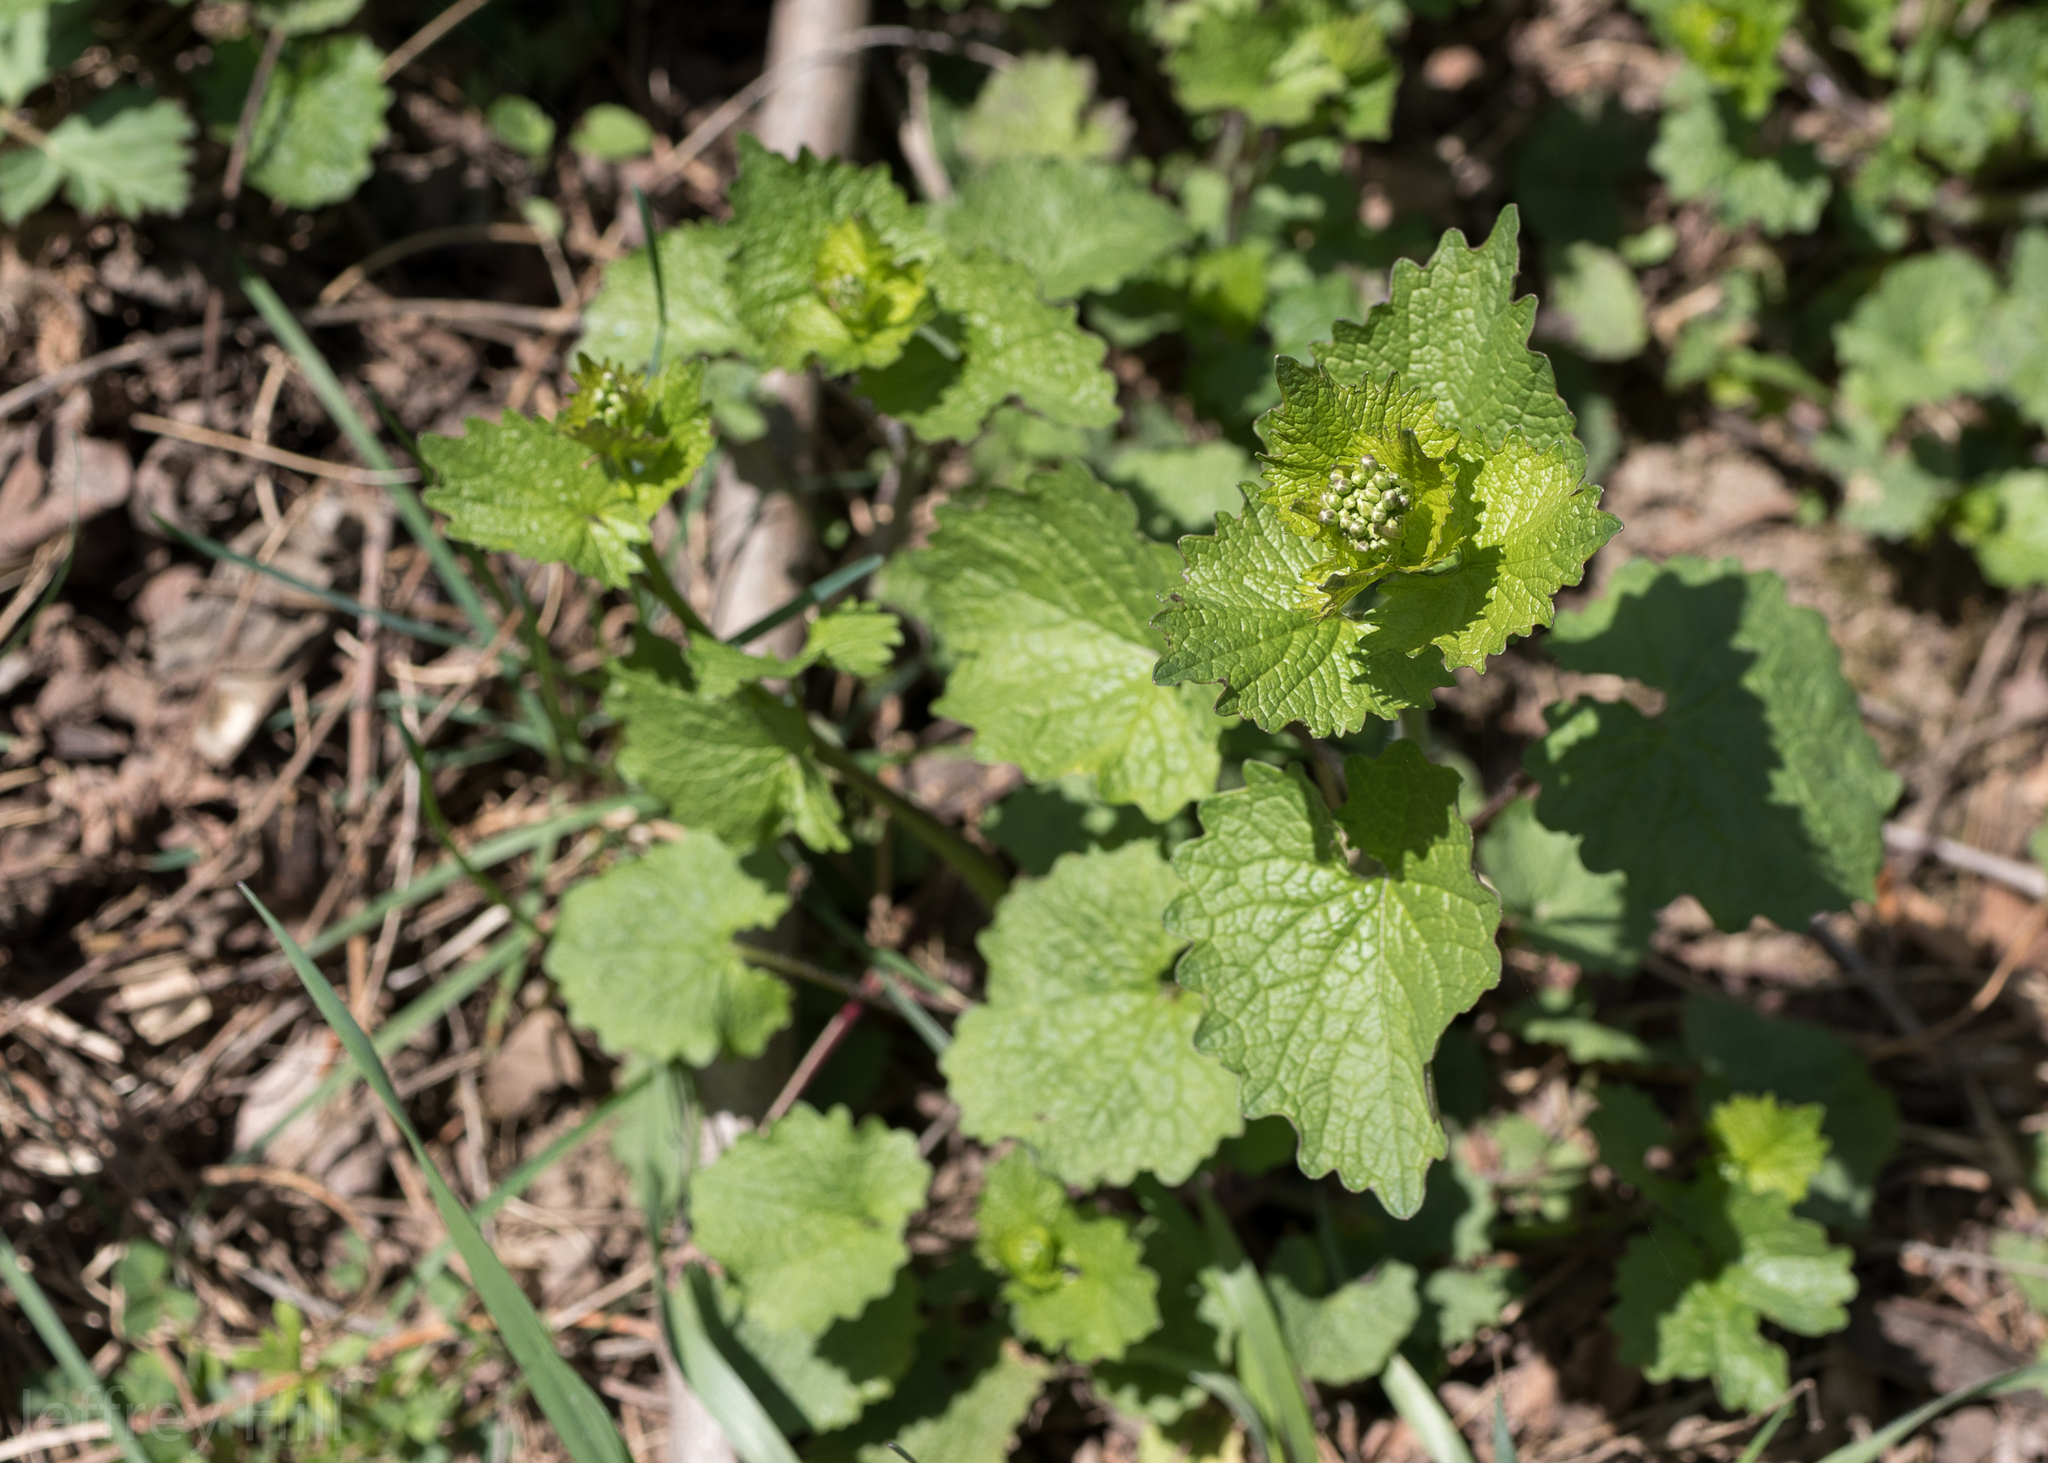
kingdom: Plantae
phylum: Tracheophyta
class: Magnoliopsida
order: Brassicales
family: Brassicaceae
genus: Alliaria
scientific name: Alliaria petiolata
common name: Garlic mustard
